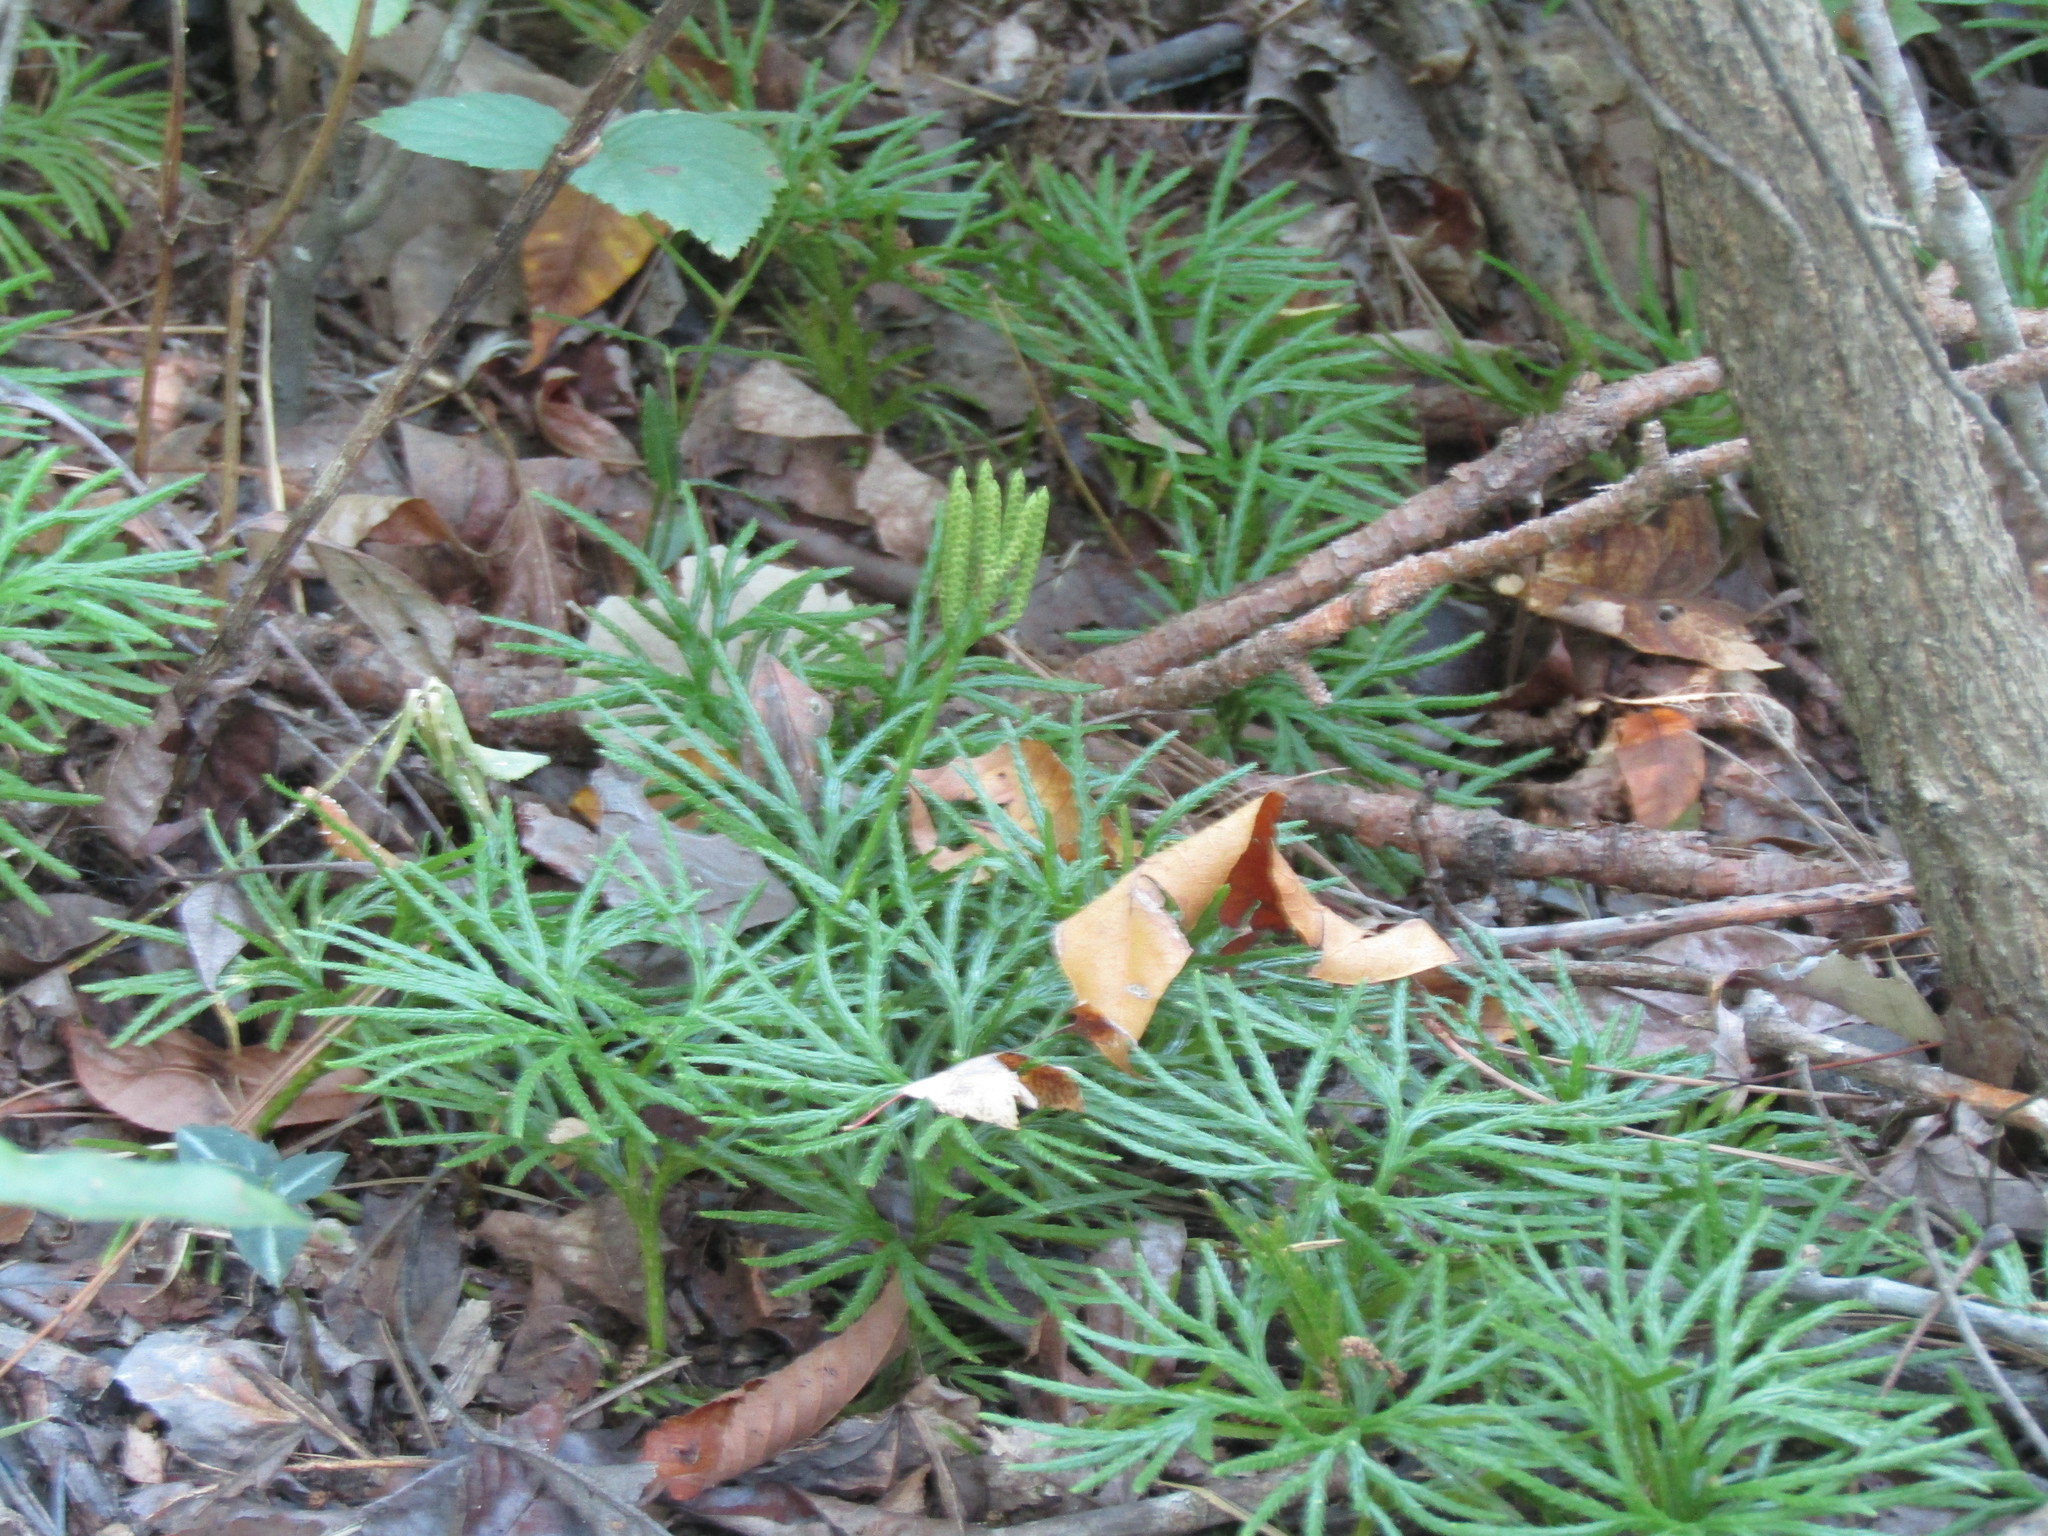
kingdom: Plantae
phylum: Tracheophyta
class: Lycopodiopsida
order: Lycopodiales
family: Lycopodiaceae
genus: Diphasiastrum
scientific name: Diphasiastrum digitatum
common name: Southern running-pine
